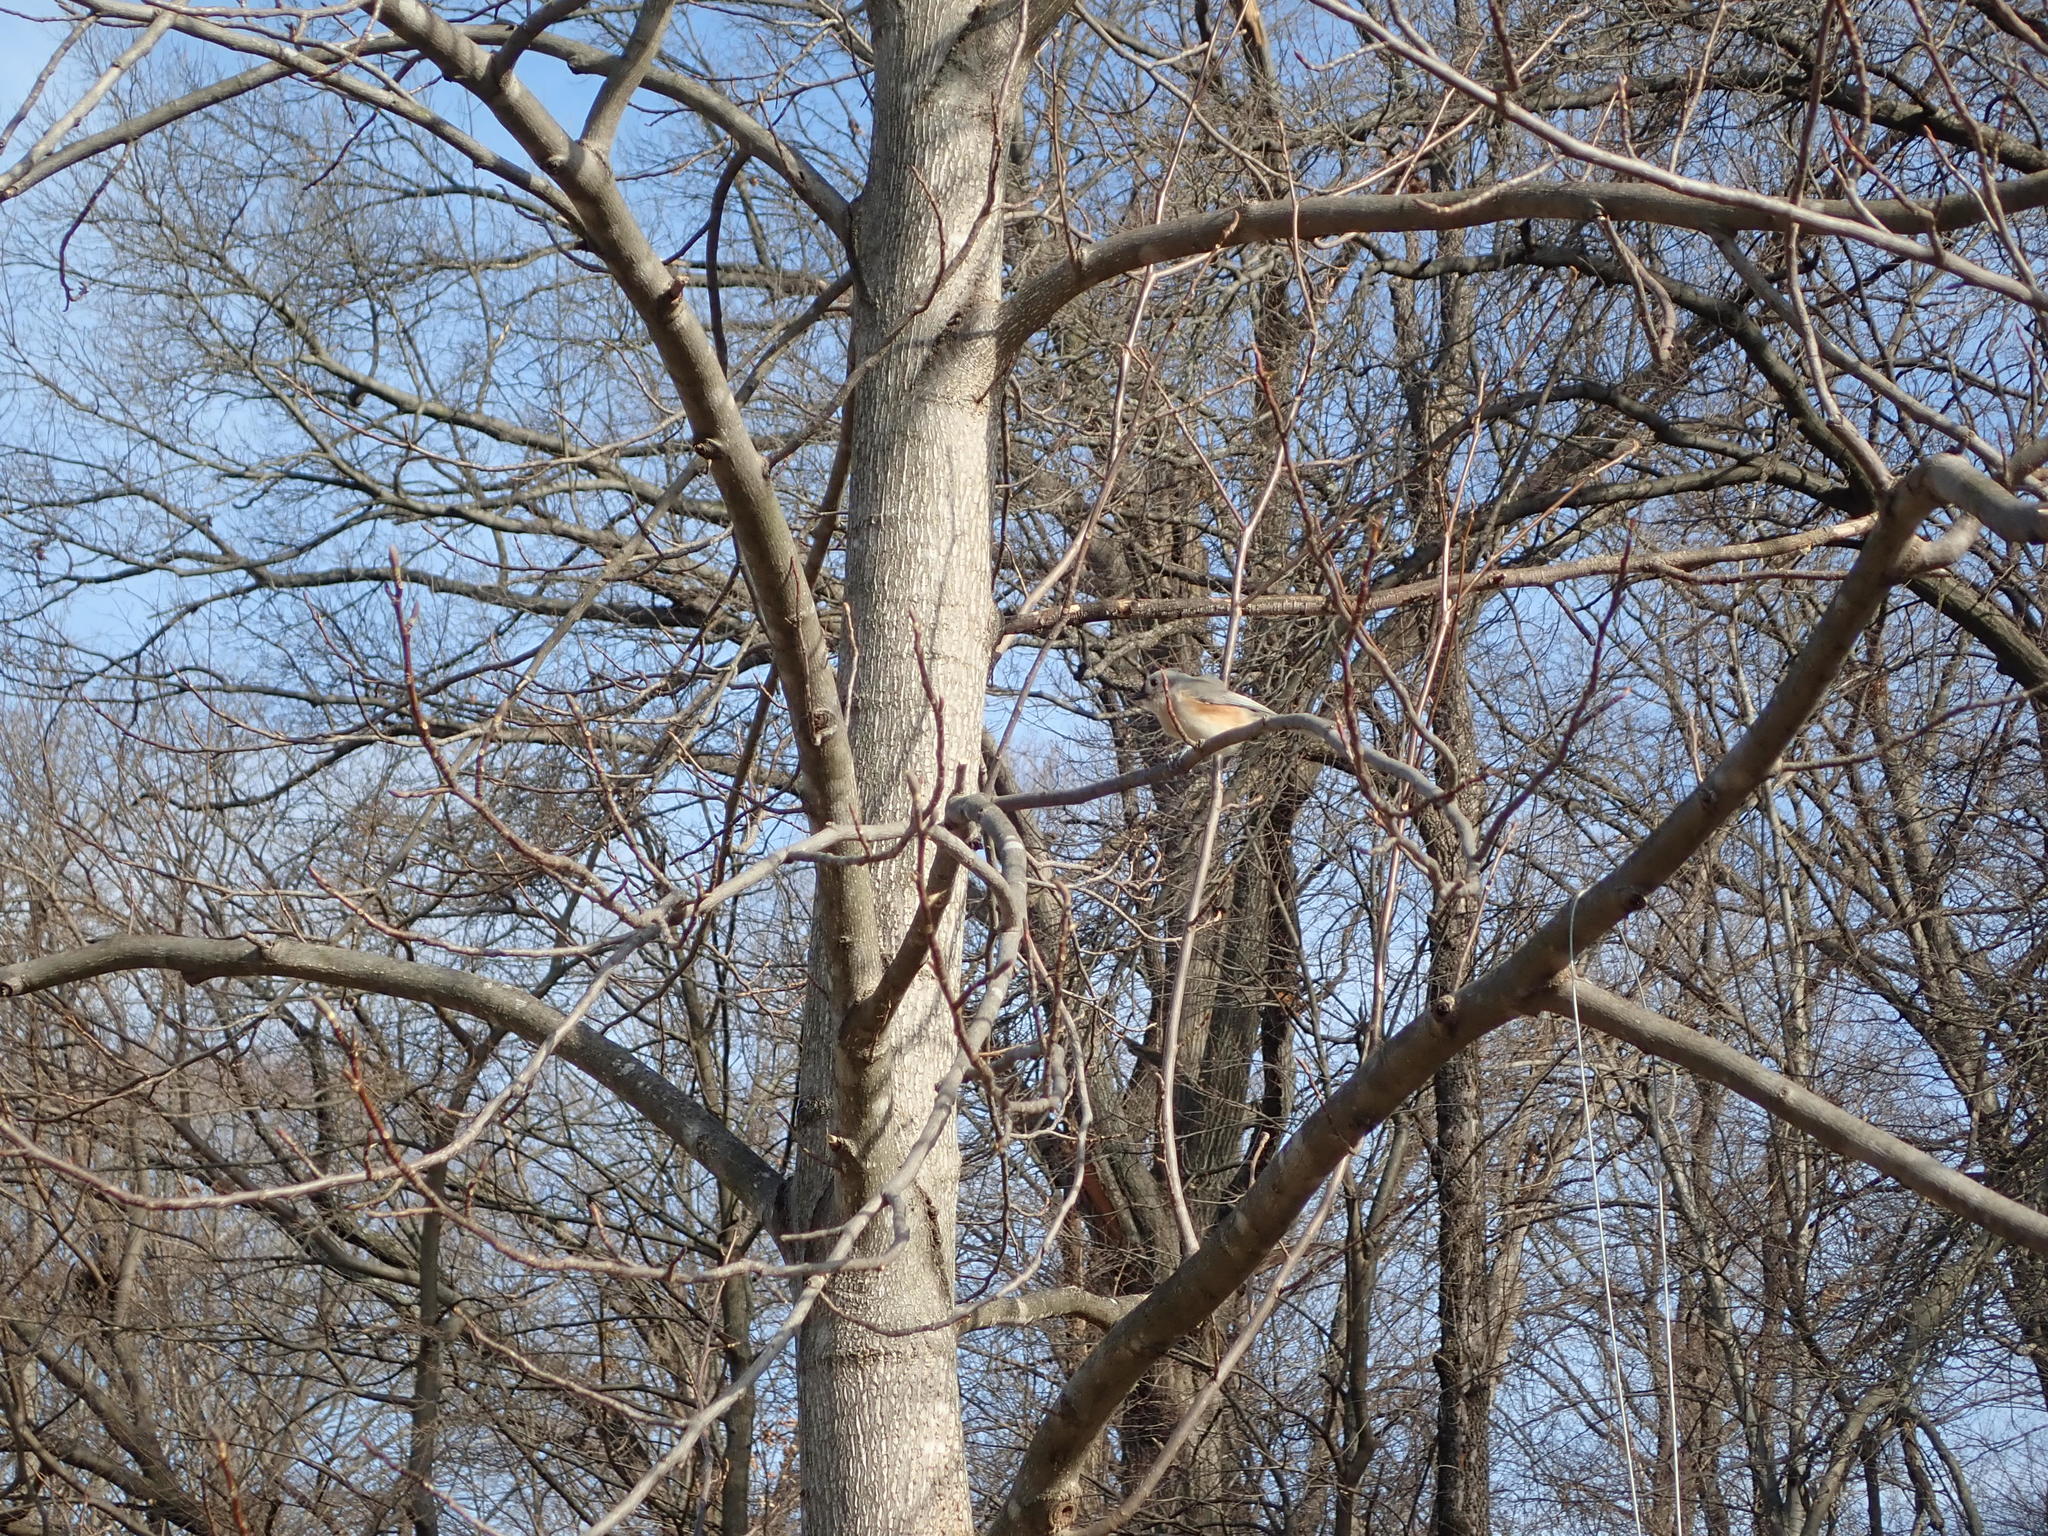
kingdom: Animalia
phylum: Chordata
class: Aves
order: Passeriformes
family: Paridae
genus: Baeolophus
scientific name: Baeolophus bicolor
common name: Tufted titmouse
